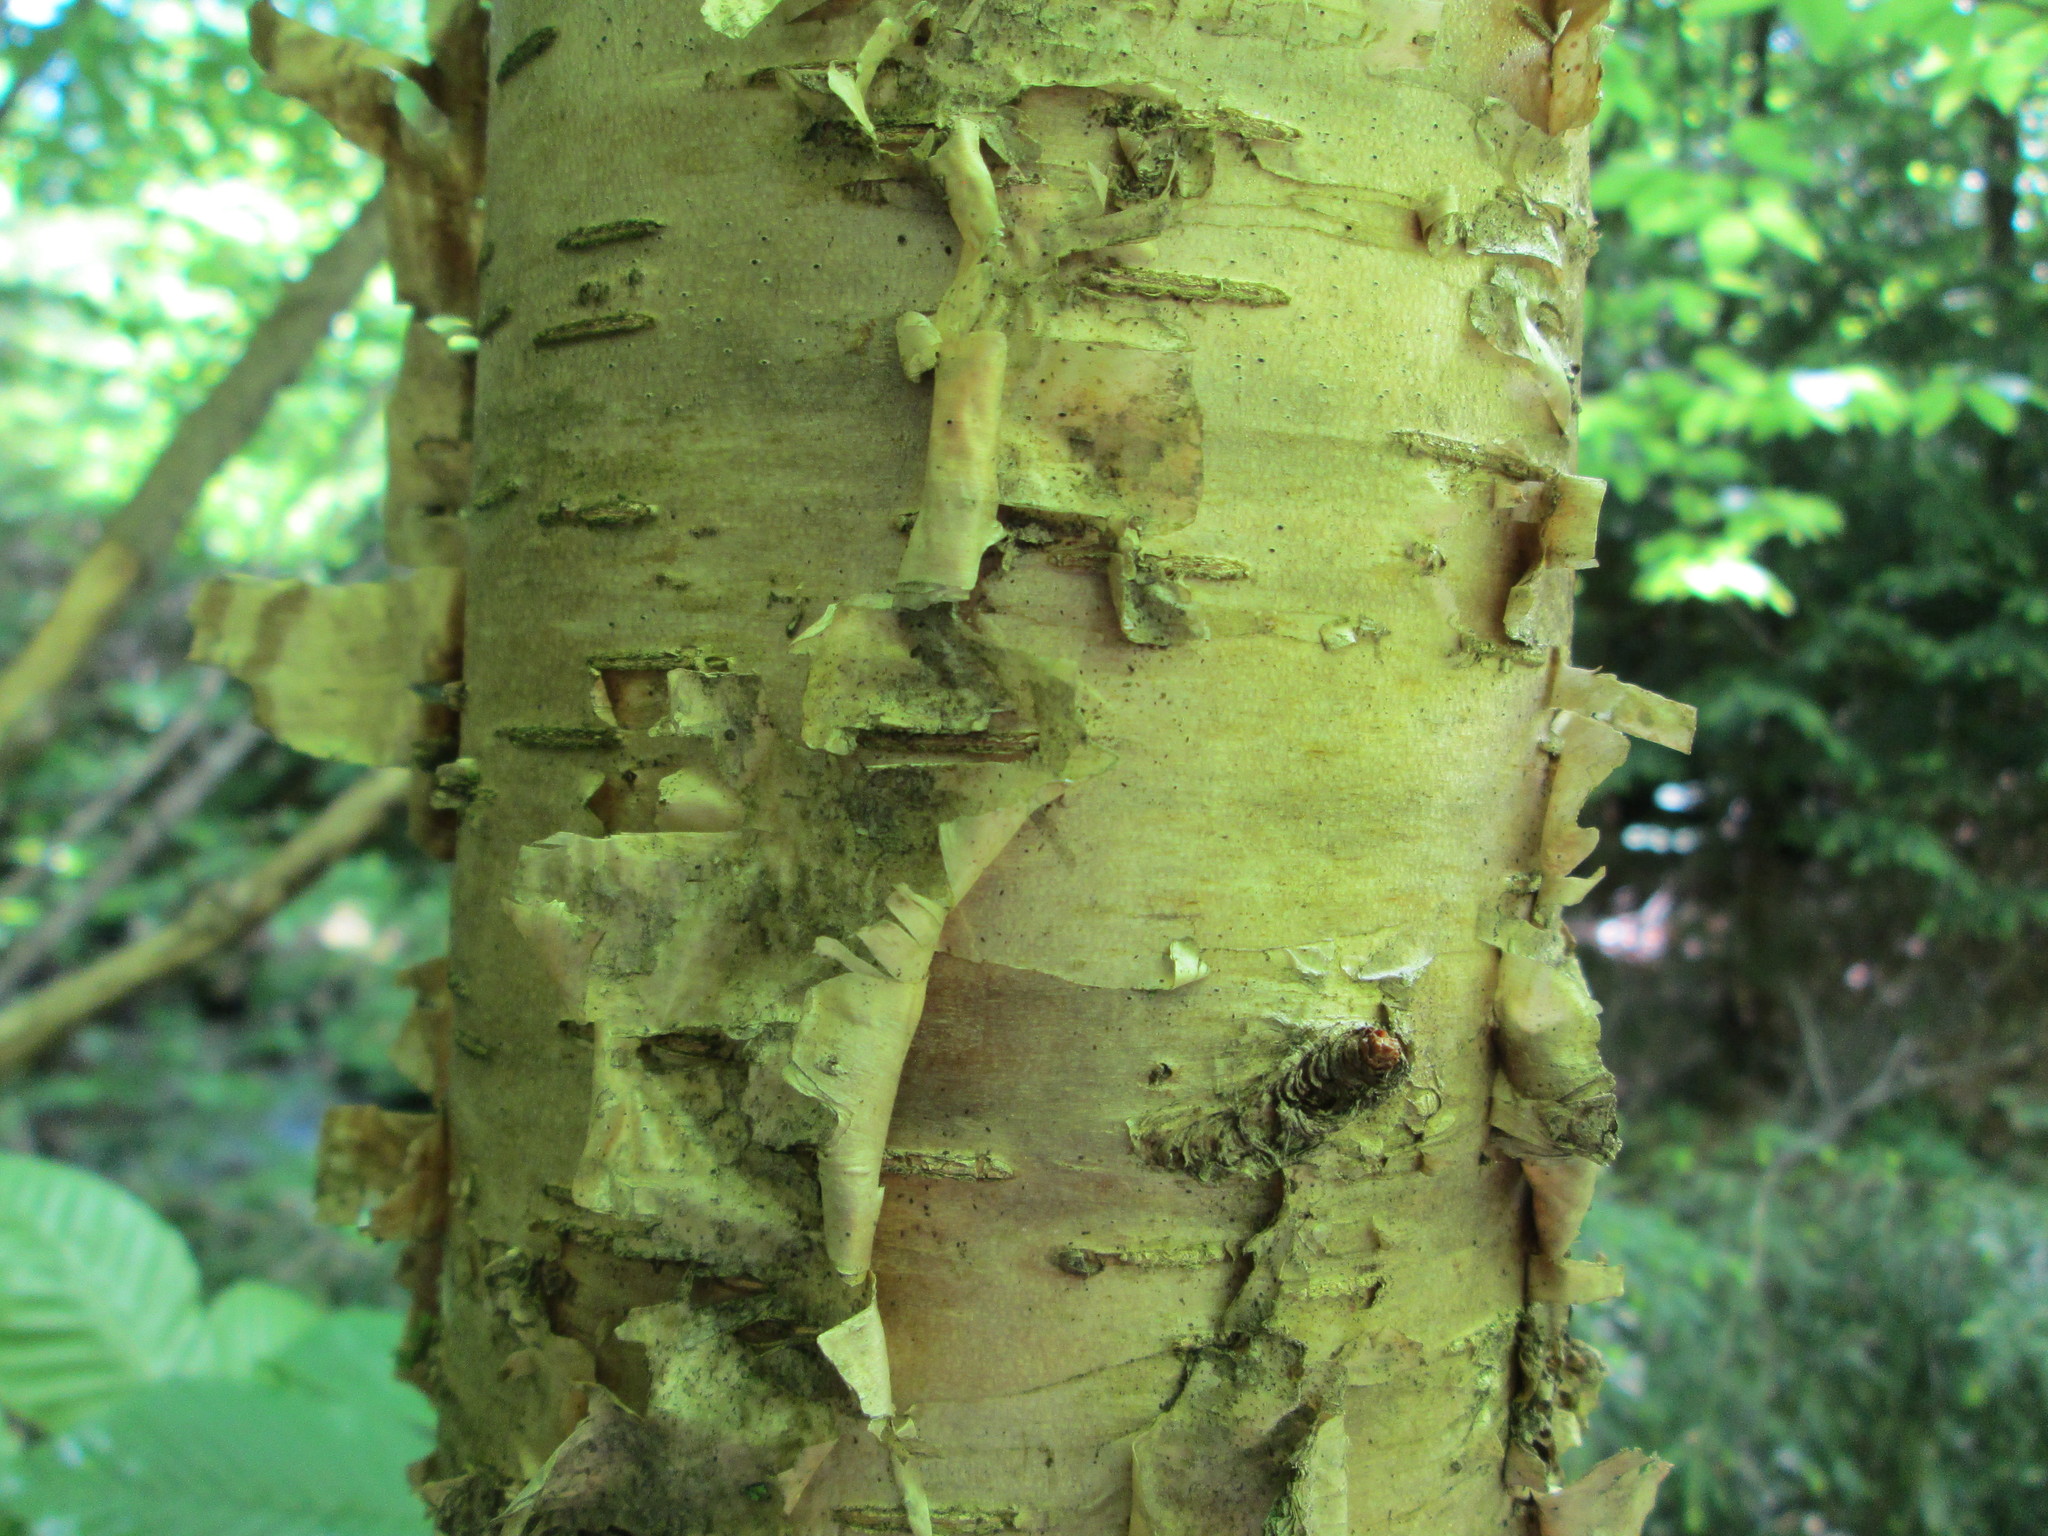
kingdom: Plantae
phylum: Tracheophyta
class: Magnoliopsida
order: Fagales
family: Betulaceae
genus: Betula
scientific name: Betula alleghaniensis
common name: Yellow birch
